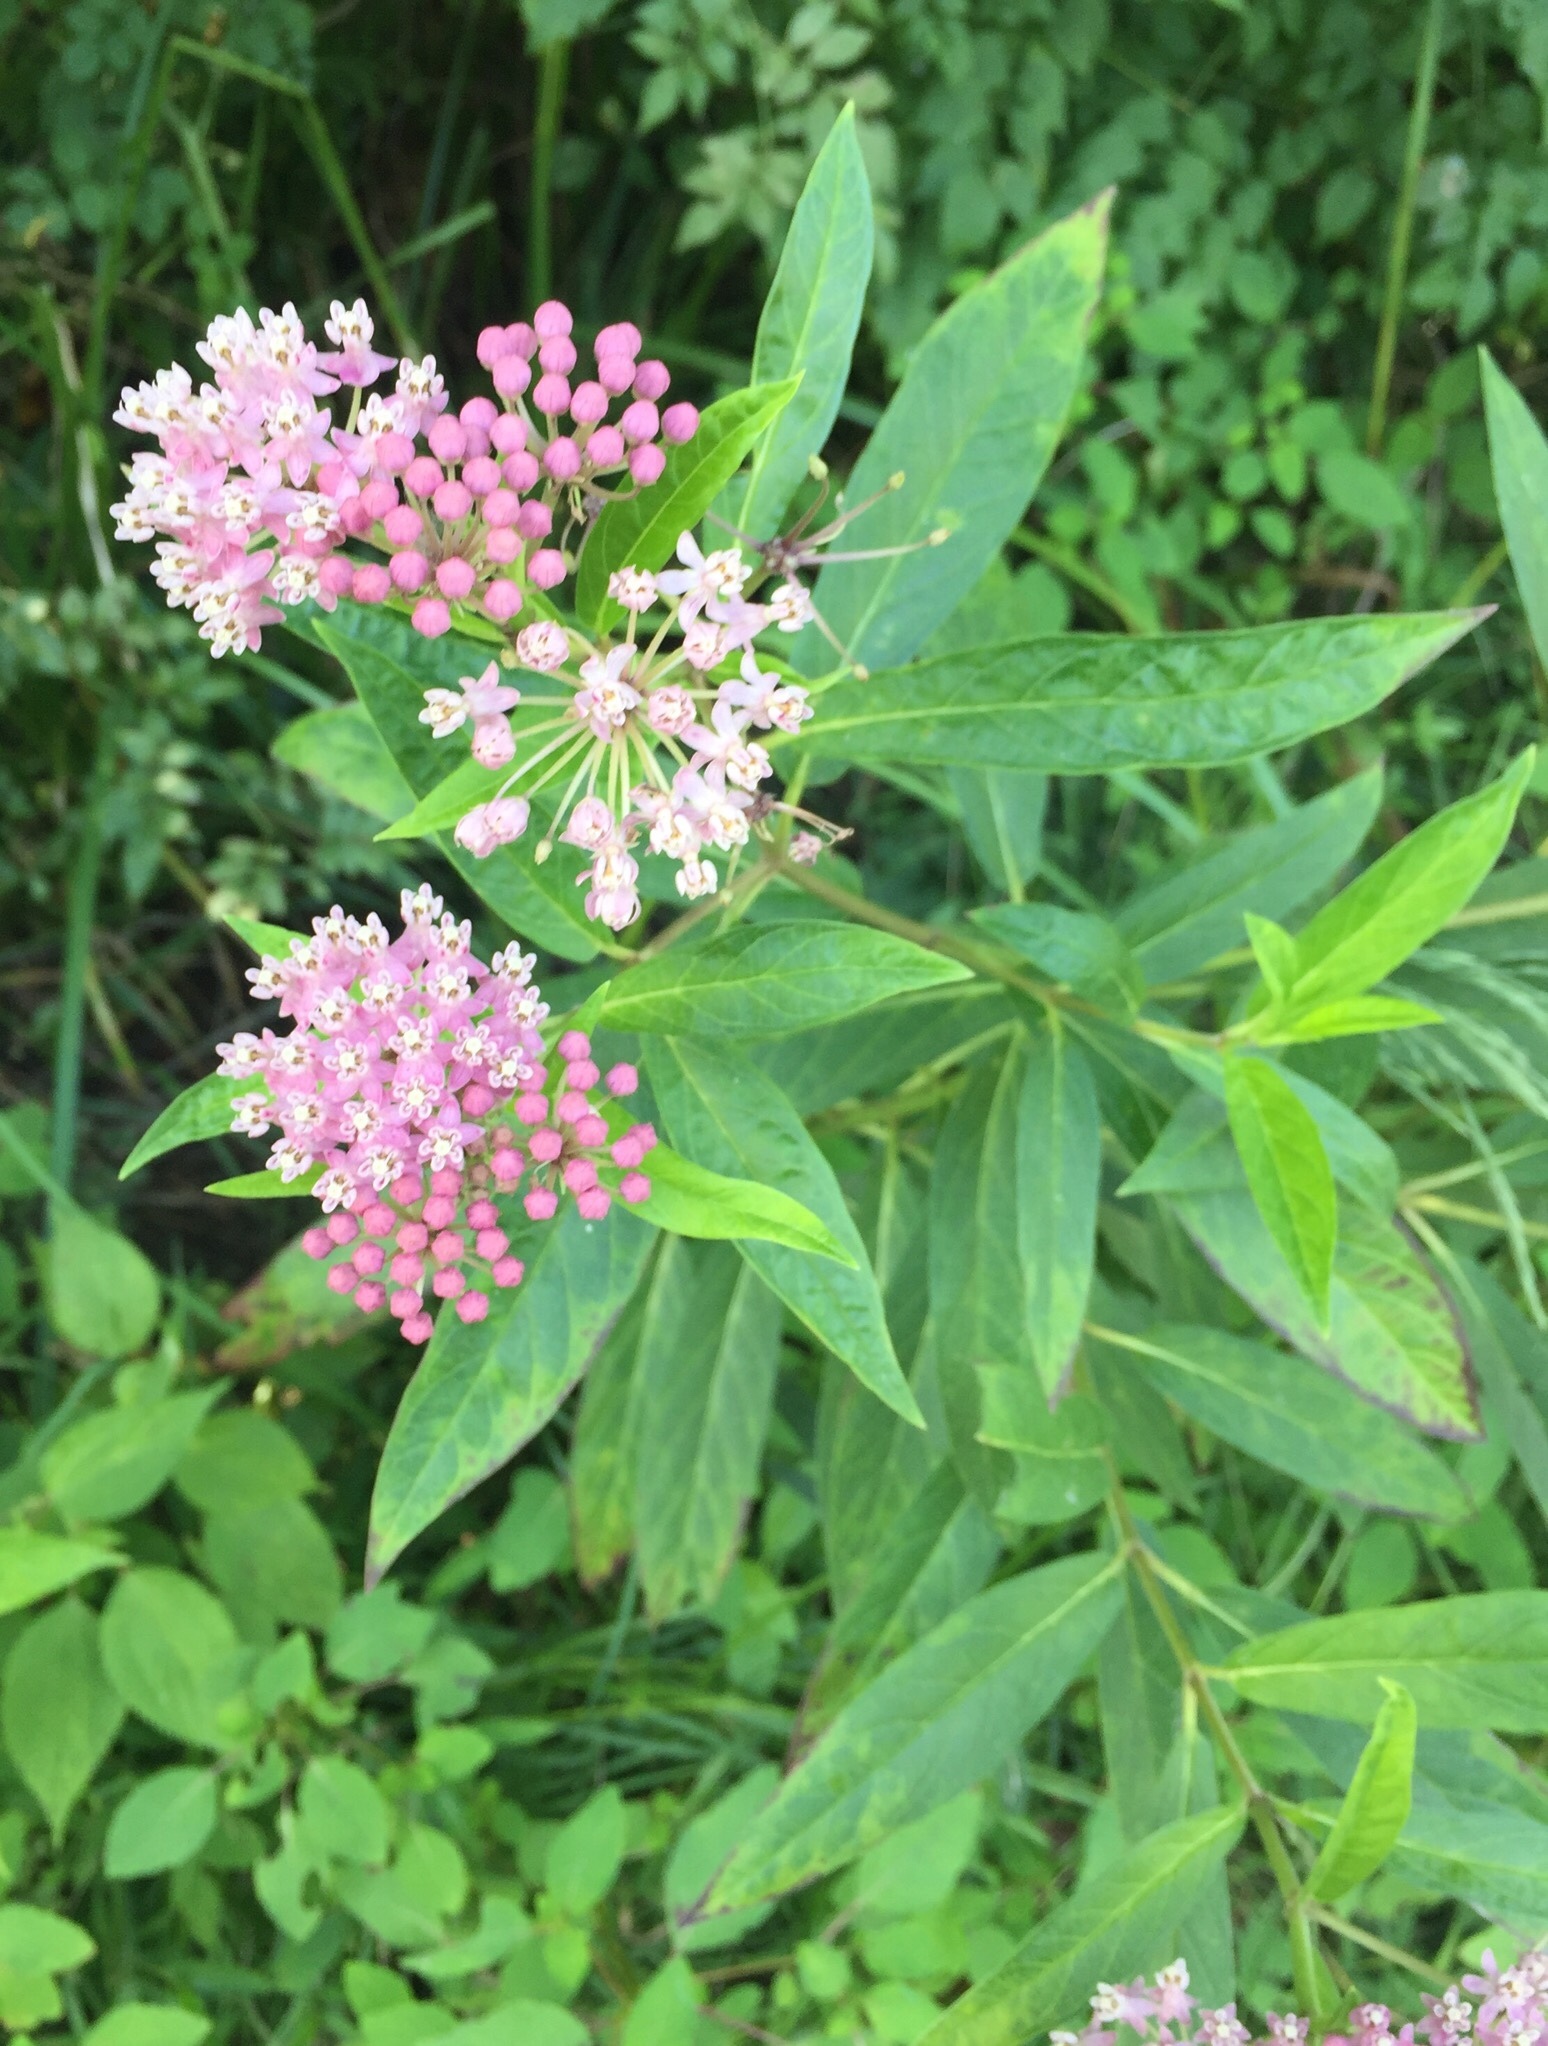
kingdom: Plantae
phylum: Tracheophyta
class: Magnoliopsida
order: Gentianales
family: Apocynaceae
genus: Asclepias
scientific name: Asclepias incarnata
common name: Swamp milkweed
